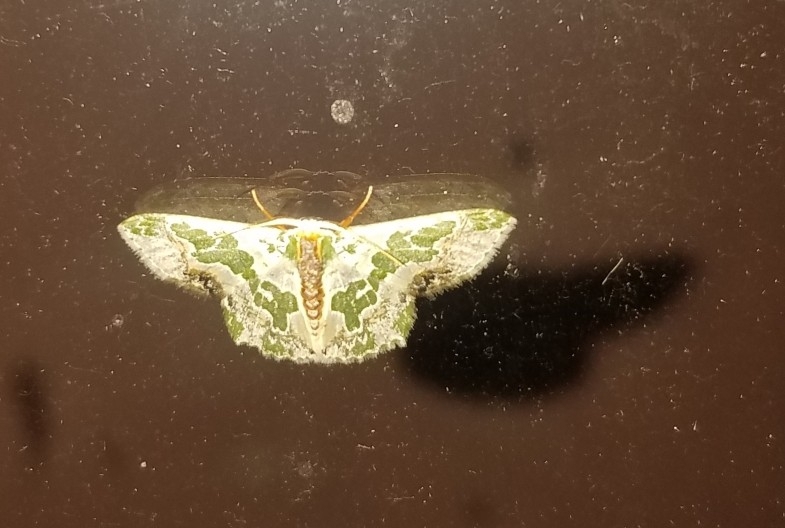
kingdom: Animalia
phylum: Arthropoda
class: Insecta
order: Lepidoptera
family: Geometridae
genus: Lophochorista
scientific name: Lophochorista calliope
